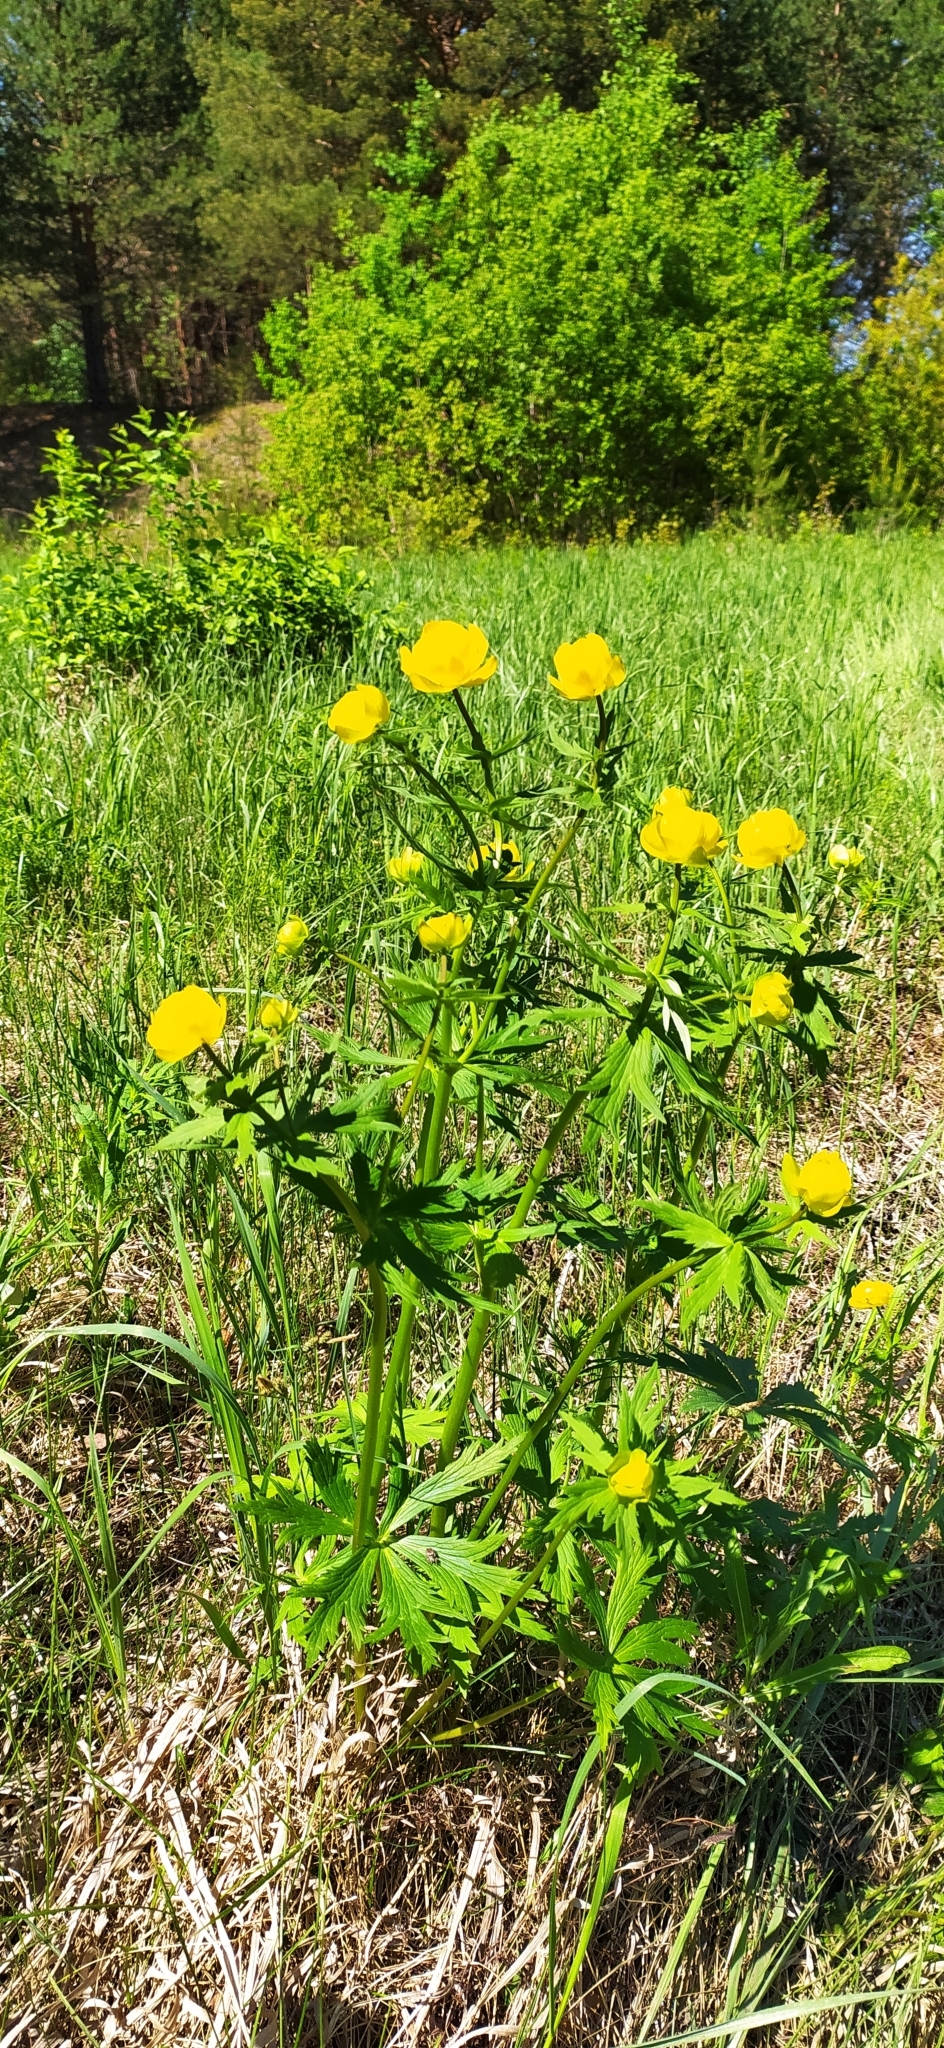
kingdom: Plantae
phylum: Tracheophyta
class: Magnoliopsida
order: Ranunculales
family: Ranunculaceae
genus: Trollius
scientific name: Trollius europaeus
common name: European globeflower
